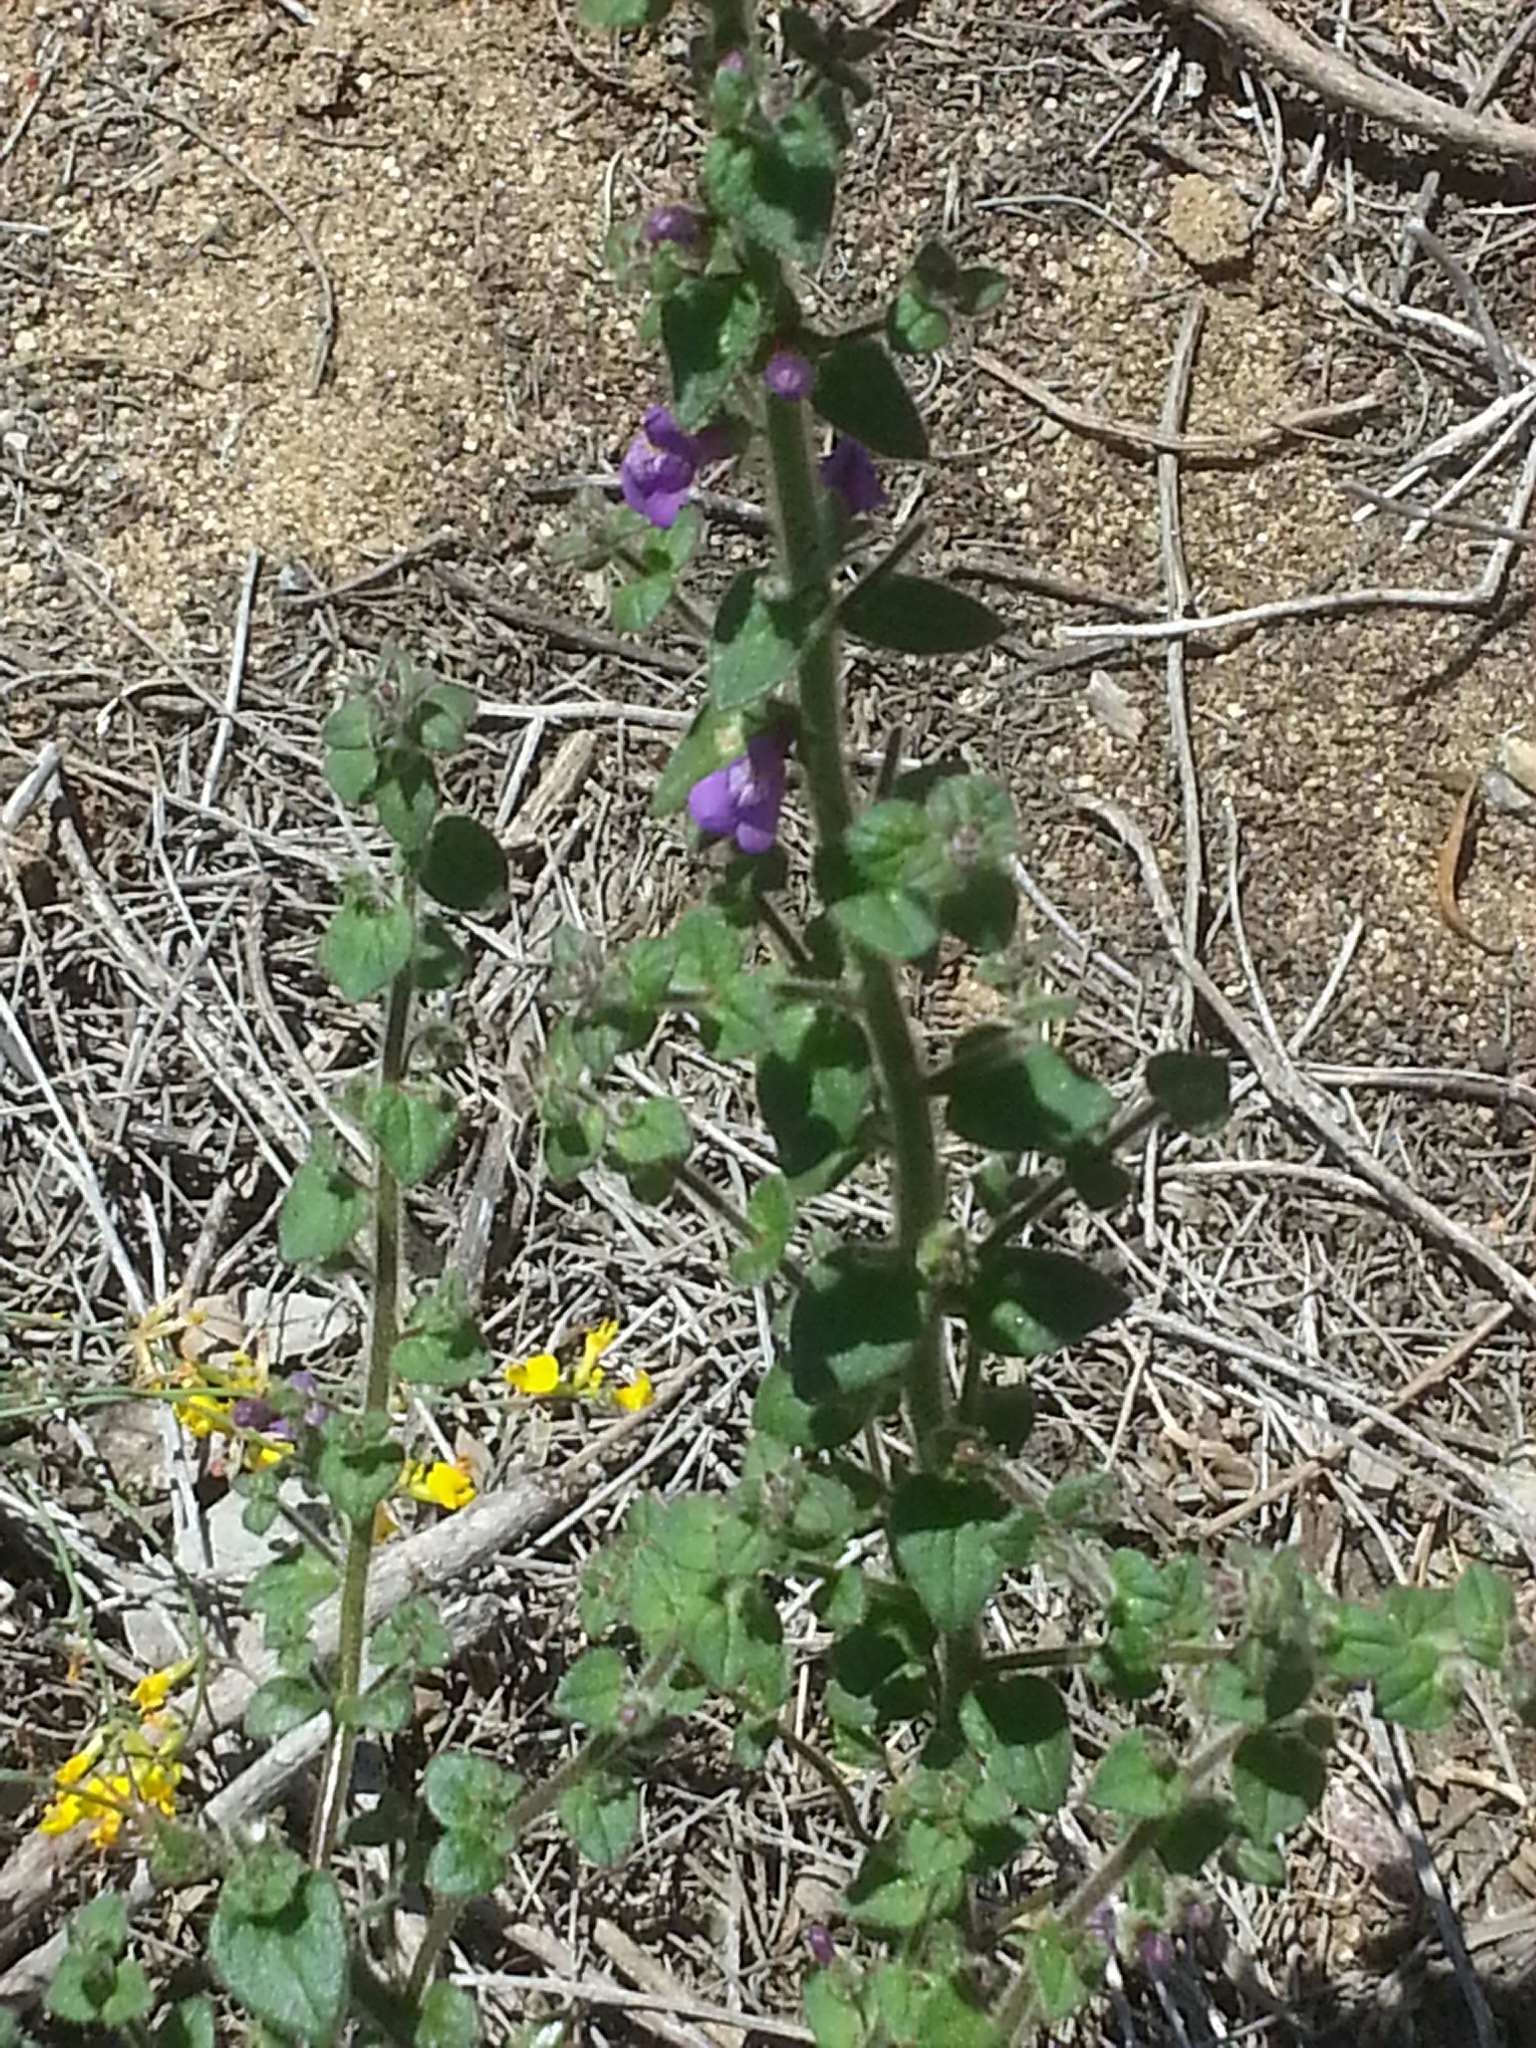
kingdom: Plantae
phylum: Tracheophyta
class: Magnoliopsida
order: Lamiales
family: Plantaginaceae
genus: Sairocarpus
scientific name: Sairocarpus nuttallianus
